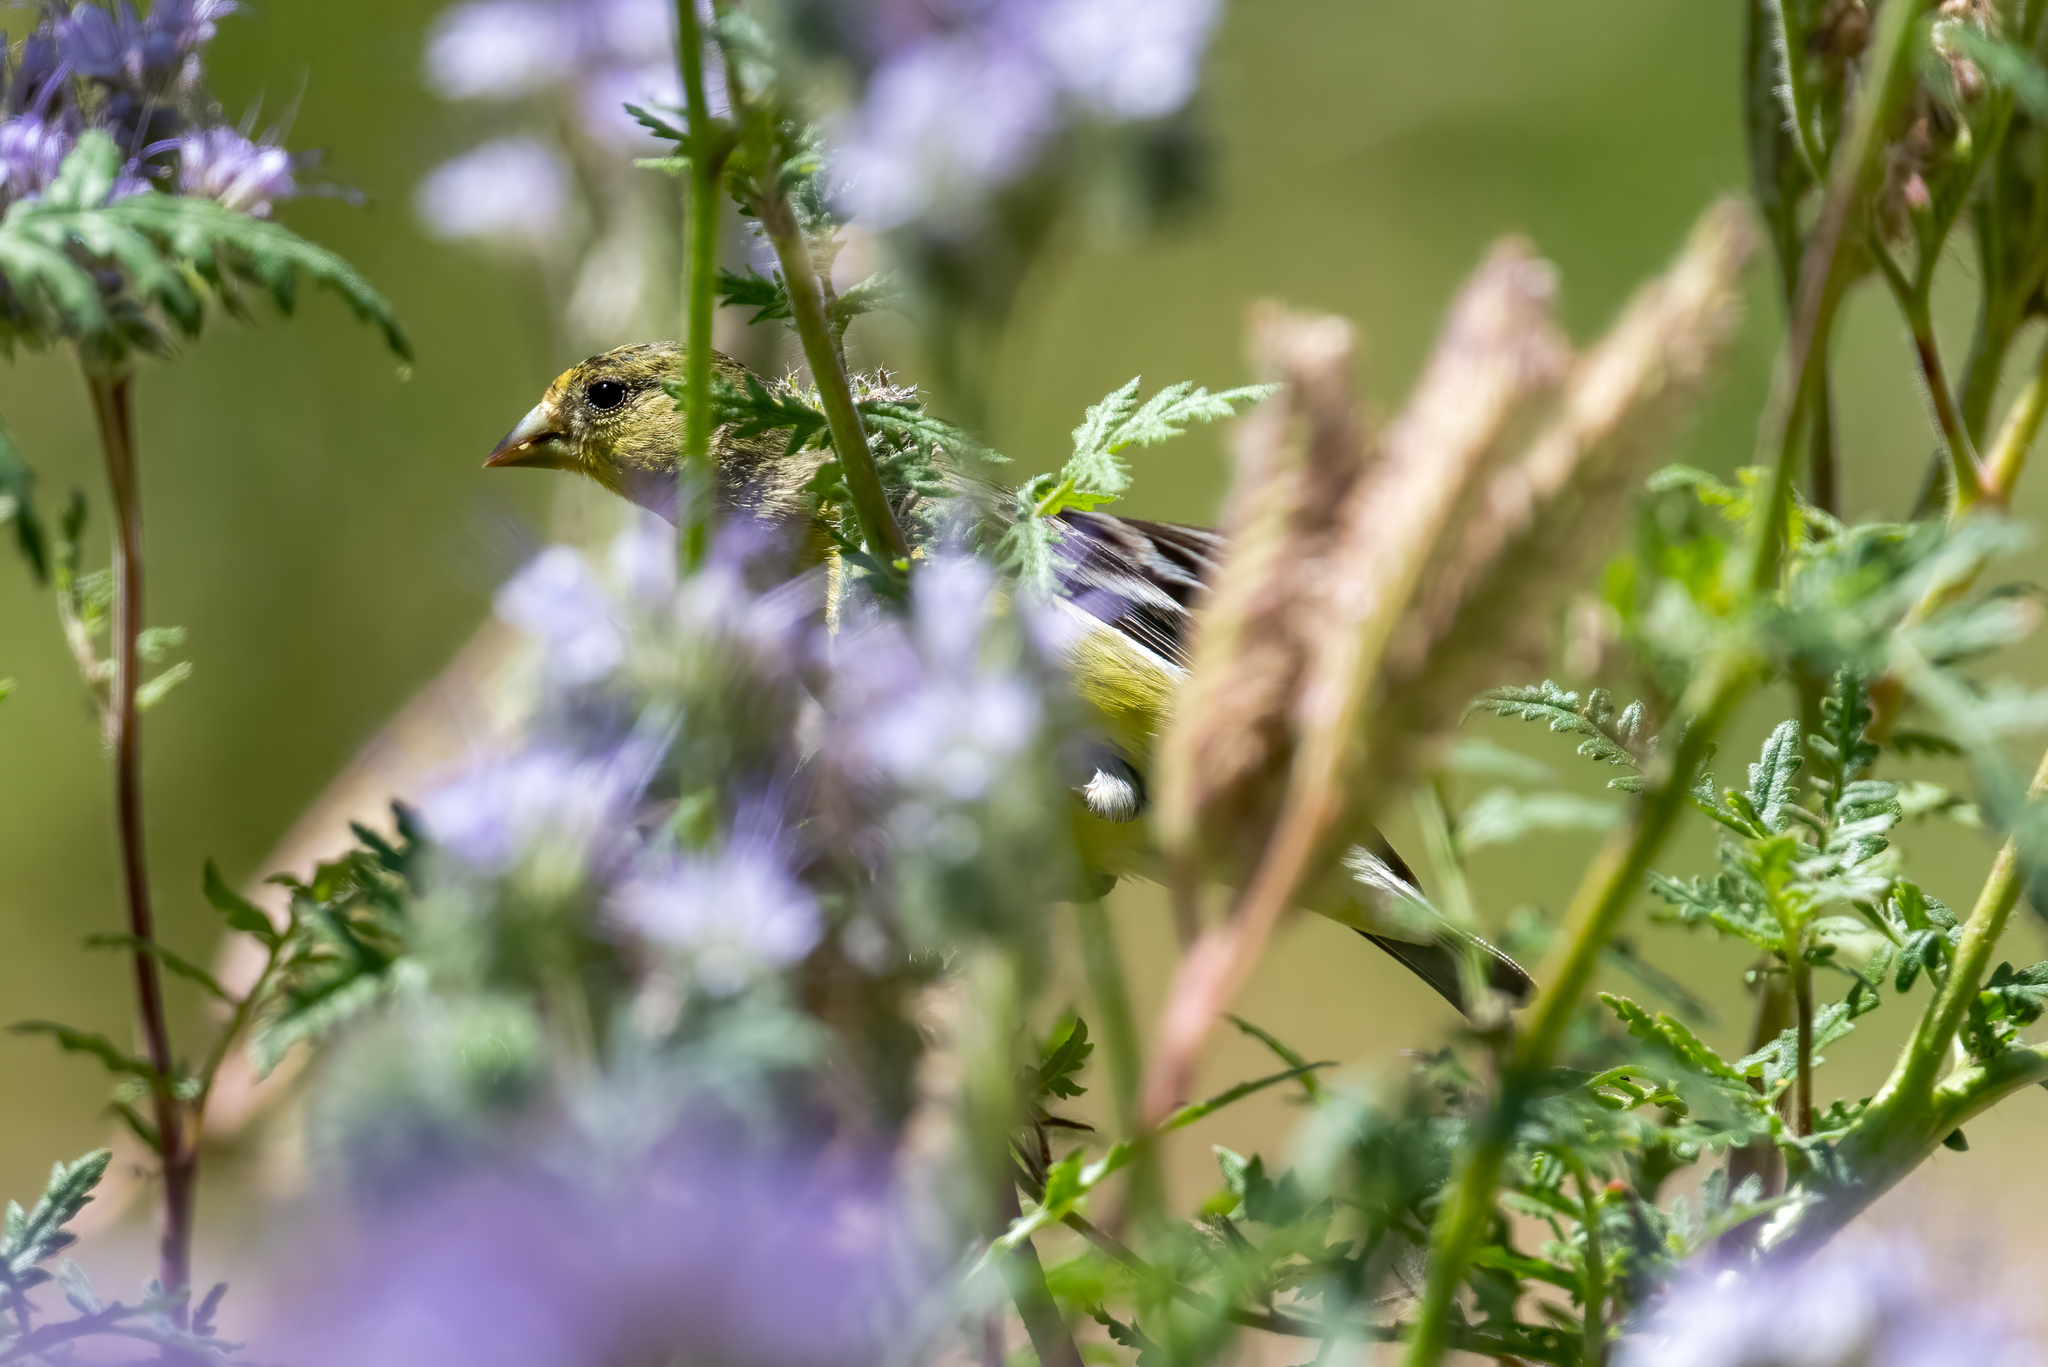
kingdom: Animalia
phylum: Chordata
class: Aves
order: Passeriformes
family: Fringillidae
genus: Spinus
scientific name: Spinus psaltria
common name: Lesser goldfinch
